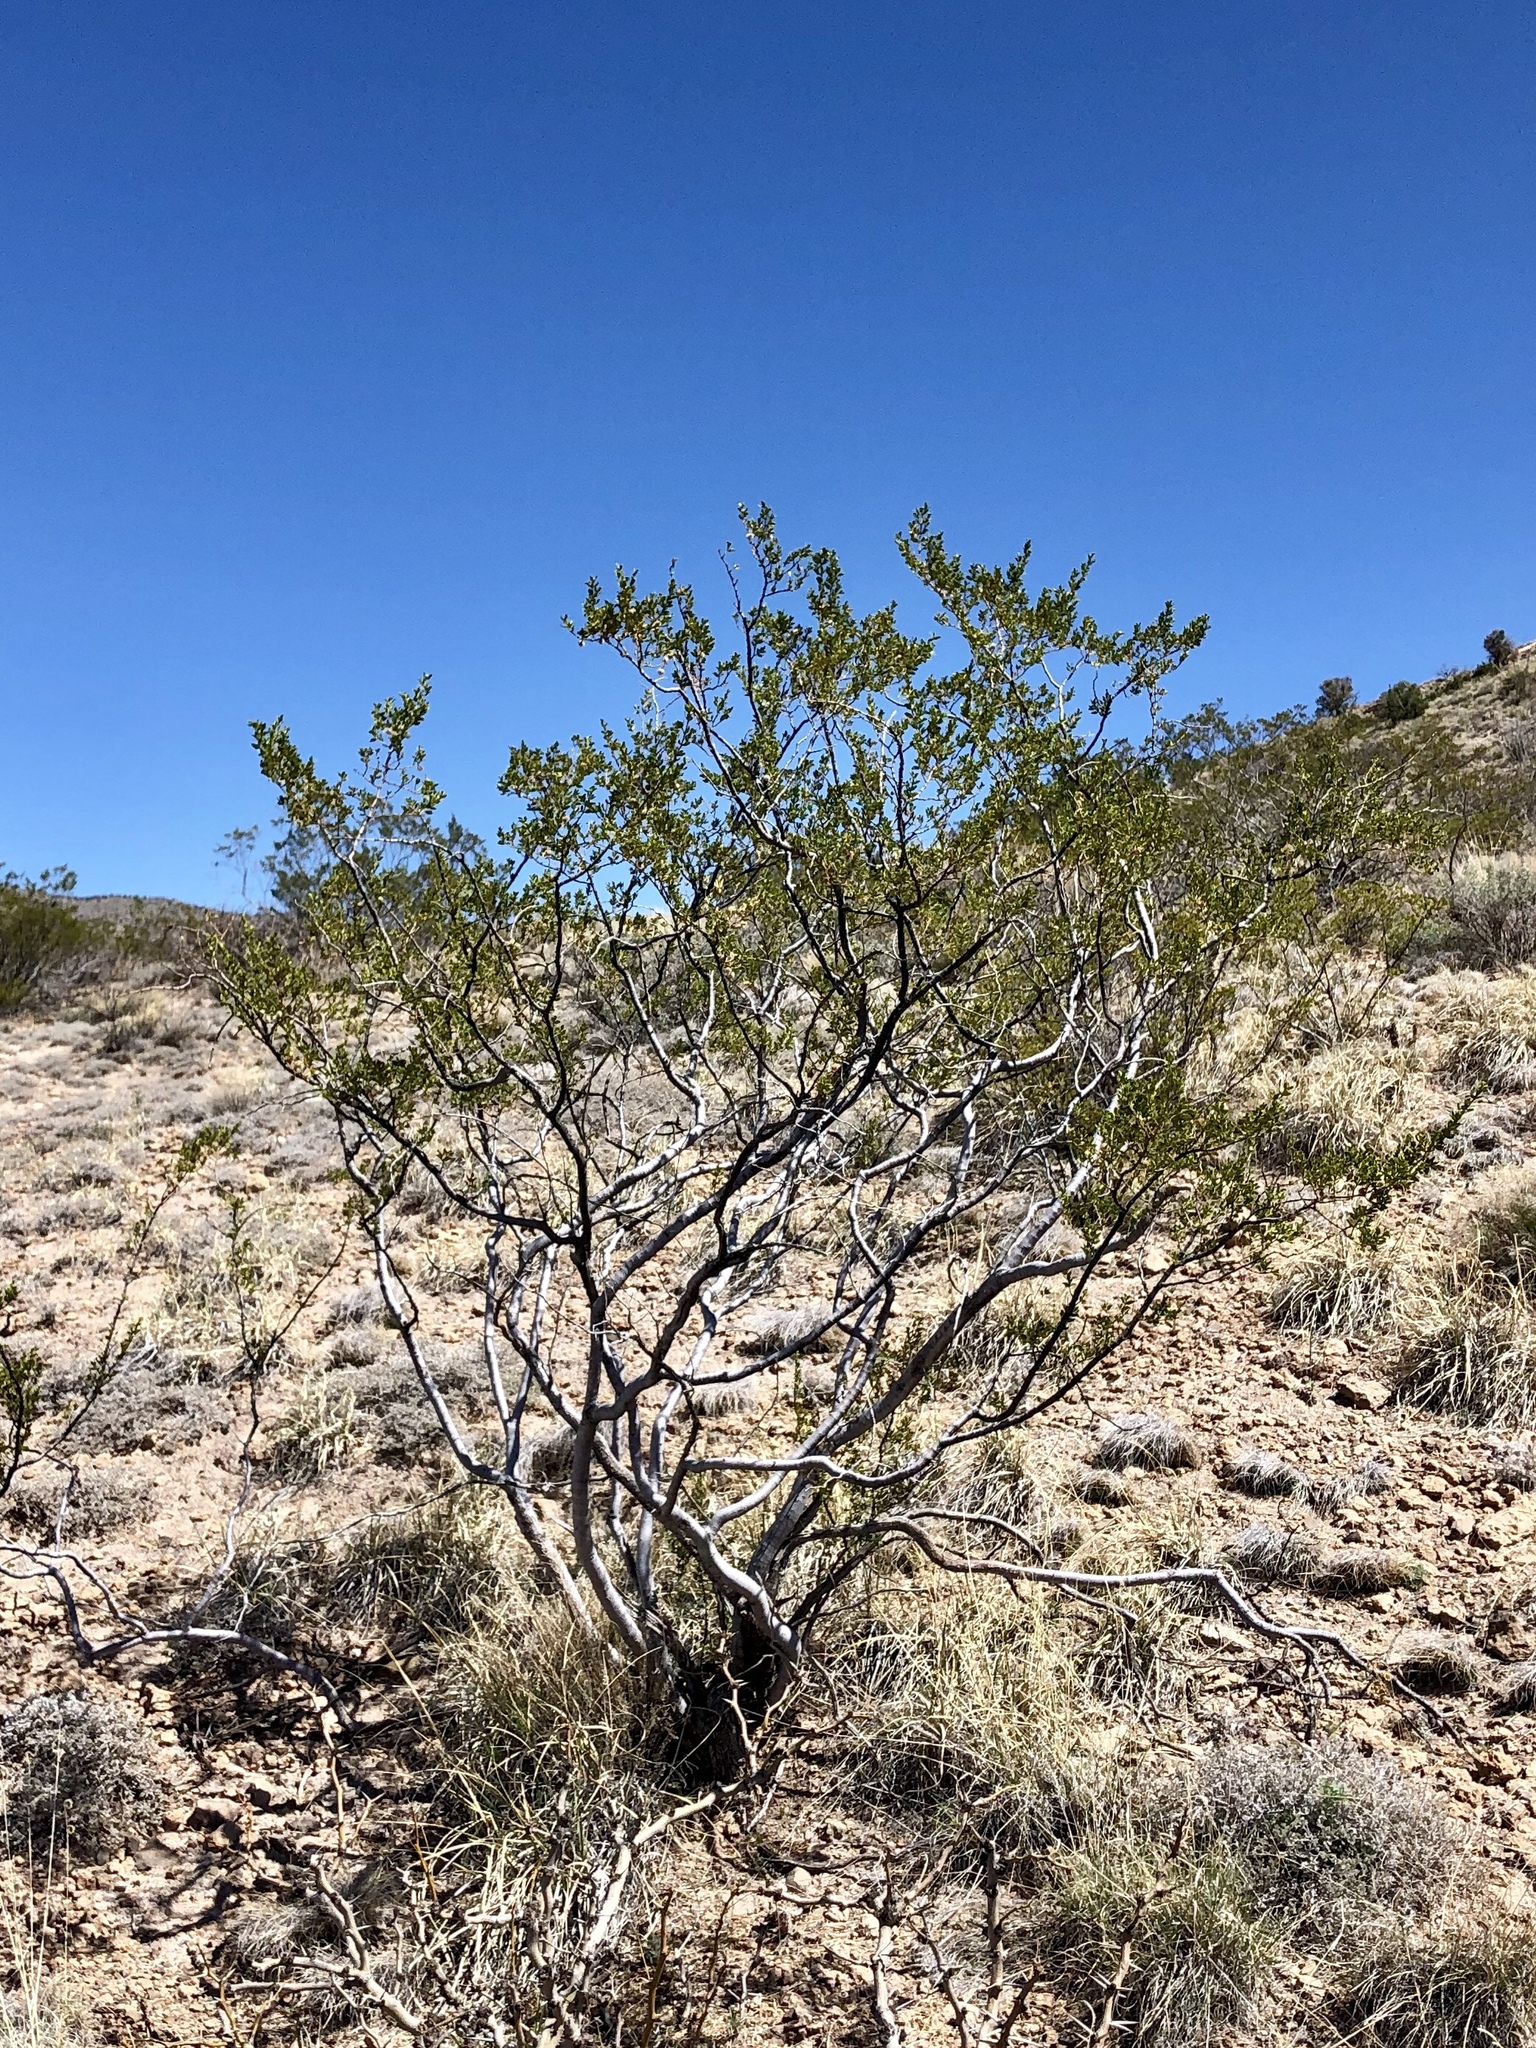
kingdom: Plantae
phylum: Tracheophyta
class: Magnoliopsida
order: Zygophyllales
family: Zygophyllaceae
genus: Larrea
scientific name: Larrea tridentata
